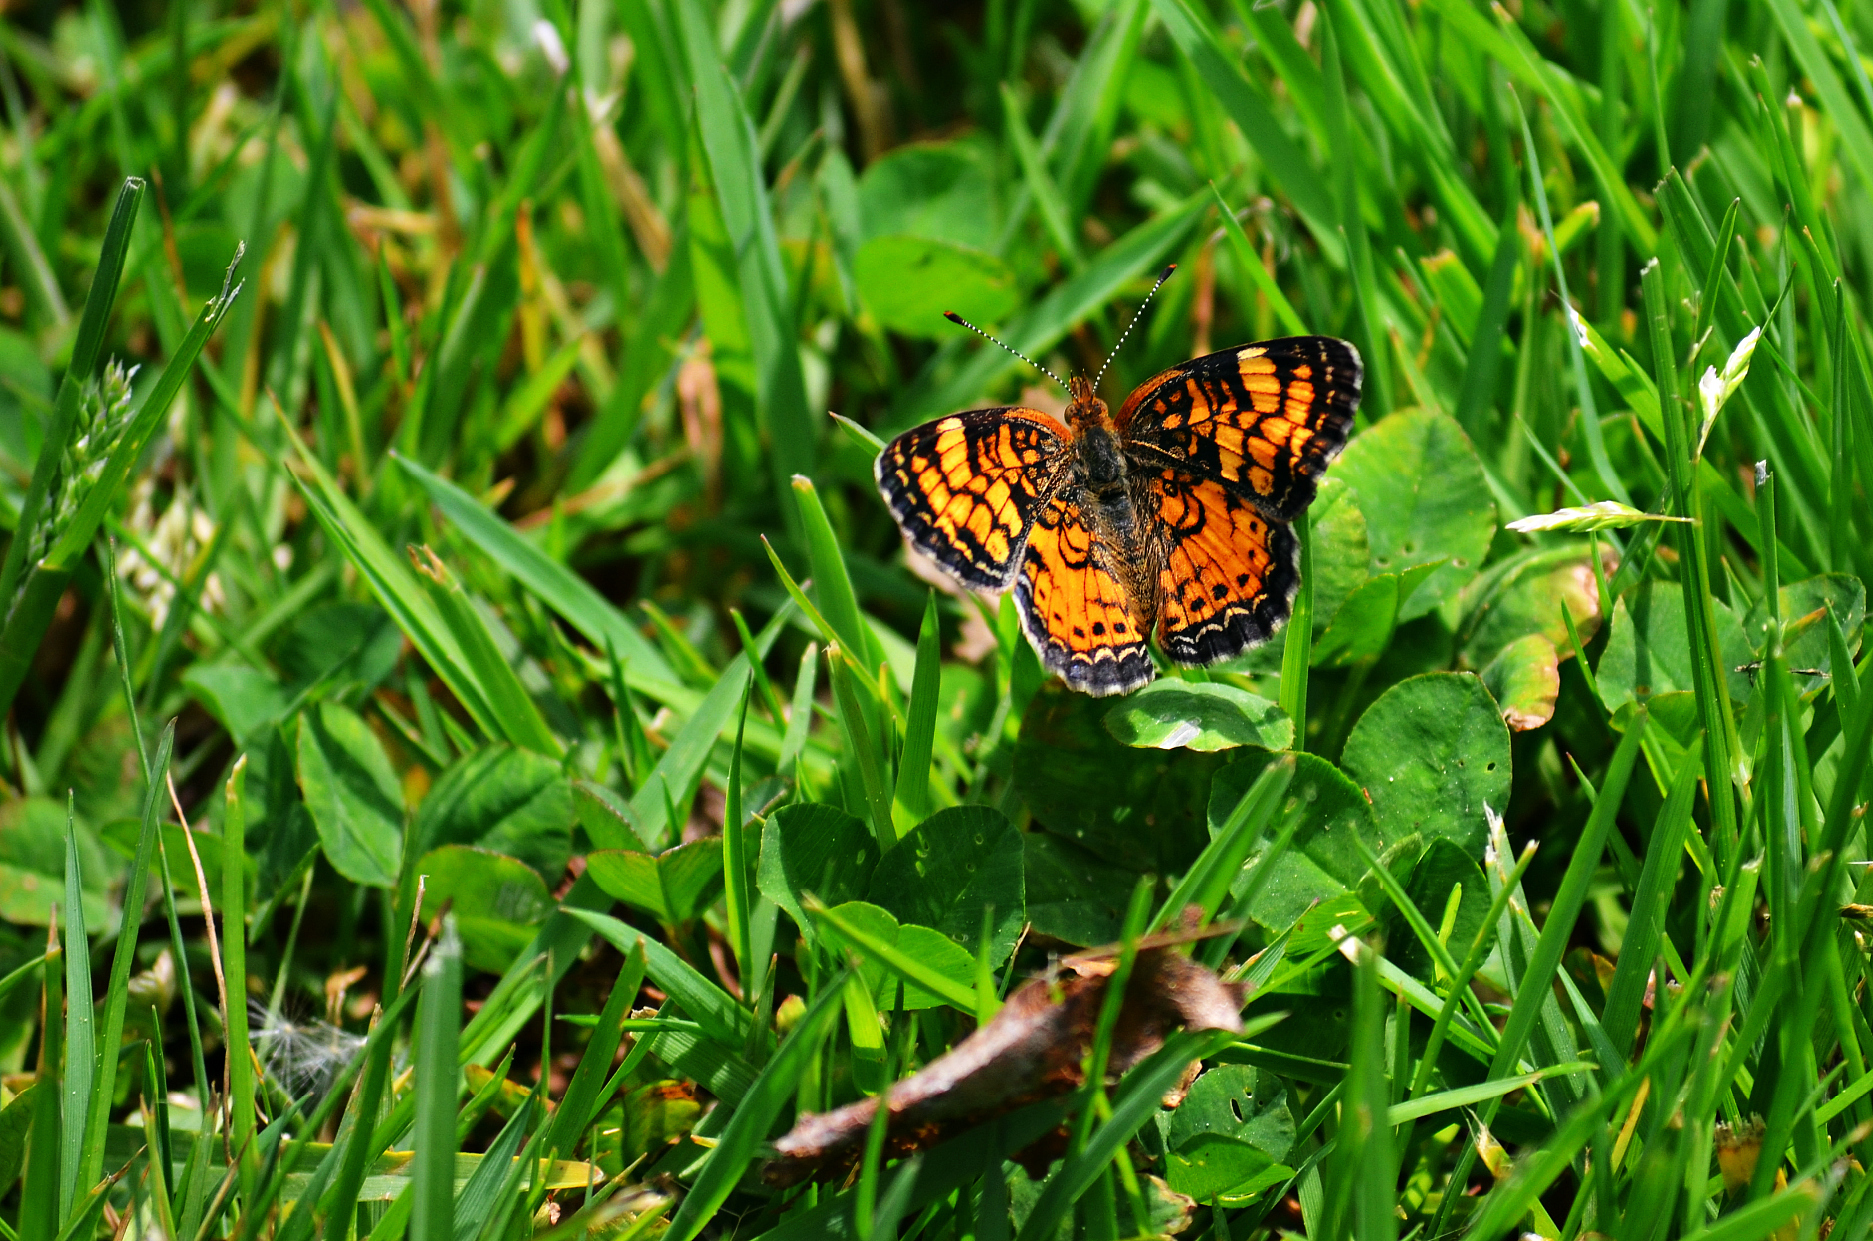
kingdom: Animalia
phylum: Arthropoda
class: Insecta
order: Lepidoptera
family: Nymphalidae
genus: Phyciodes
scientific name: Phyciodes tharos
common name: Pearl crescent
